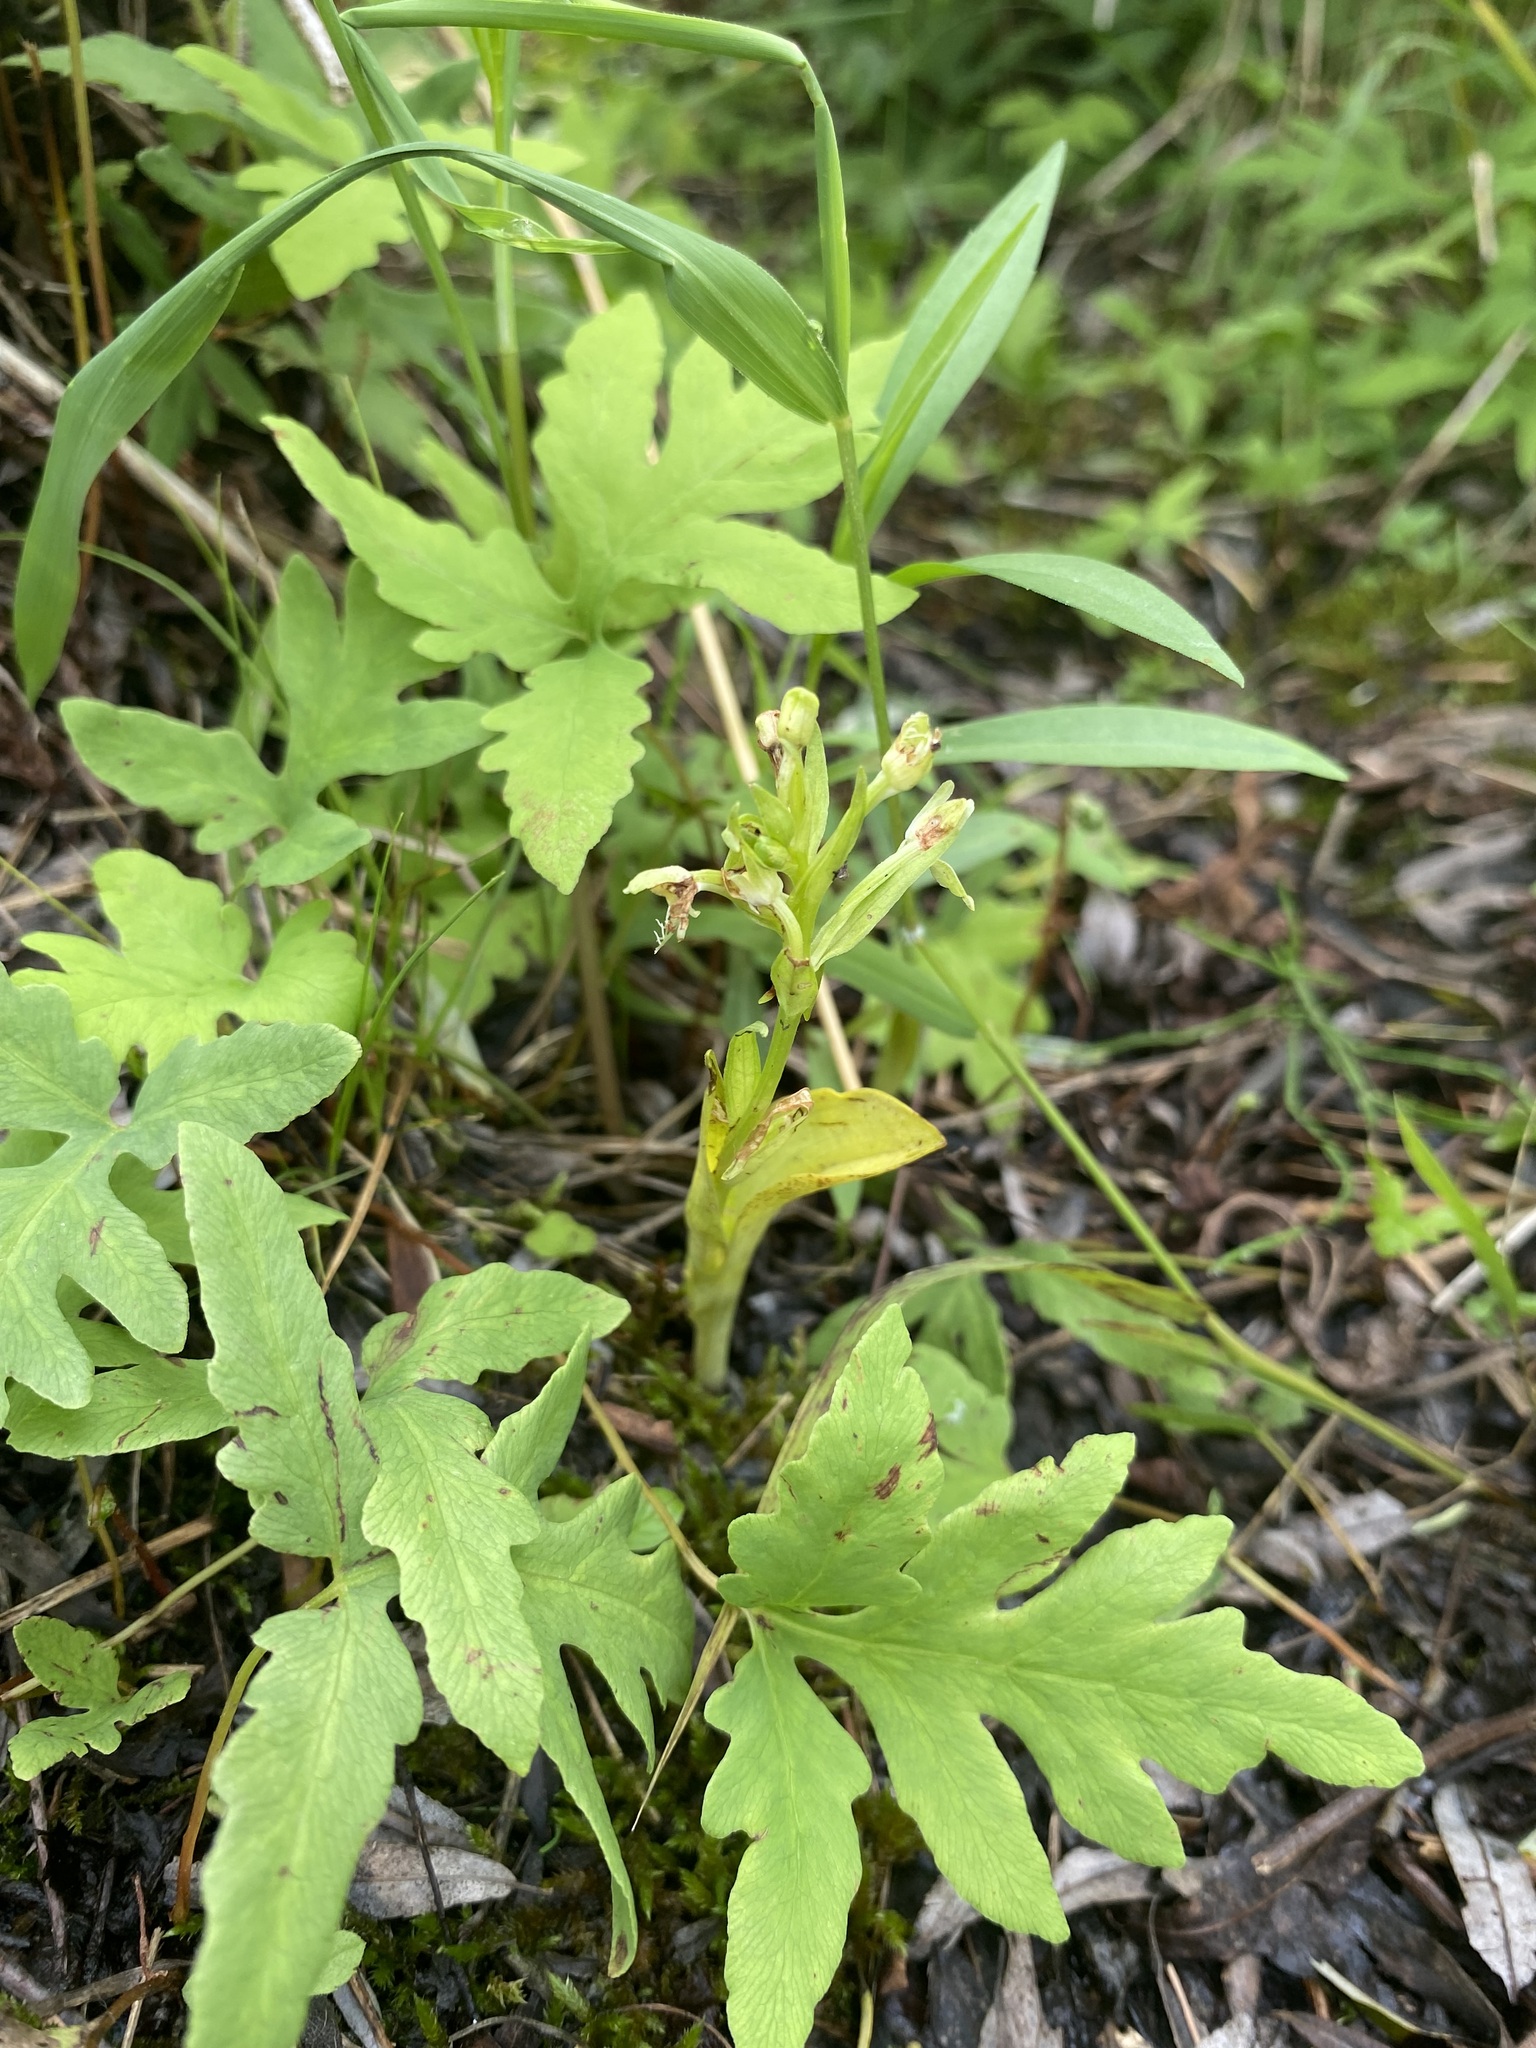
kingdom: Plantae
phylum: Tracheophyta
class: Liliopsida
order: Asparagales
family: Orchidaceae
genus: Platanthera
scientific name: Platanthera lacera
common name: Green fringed orchid
